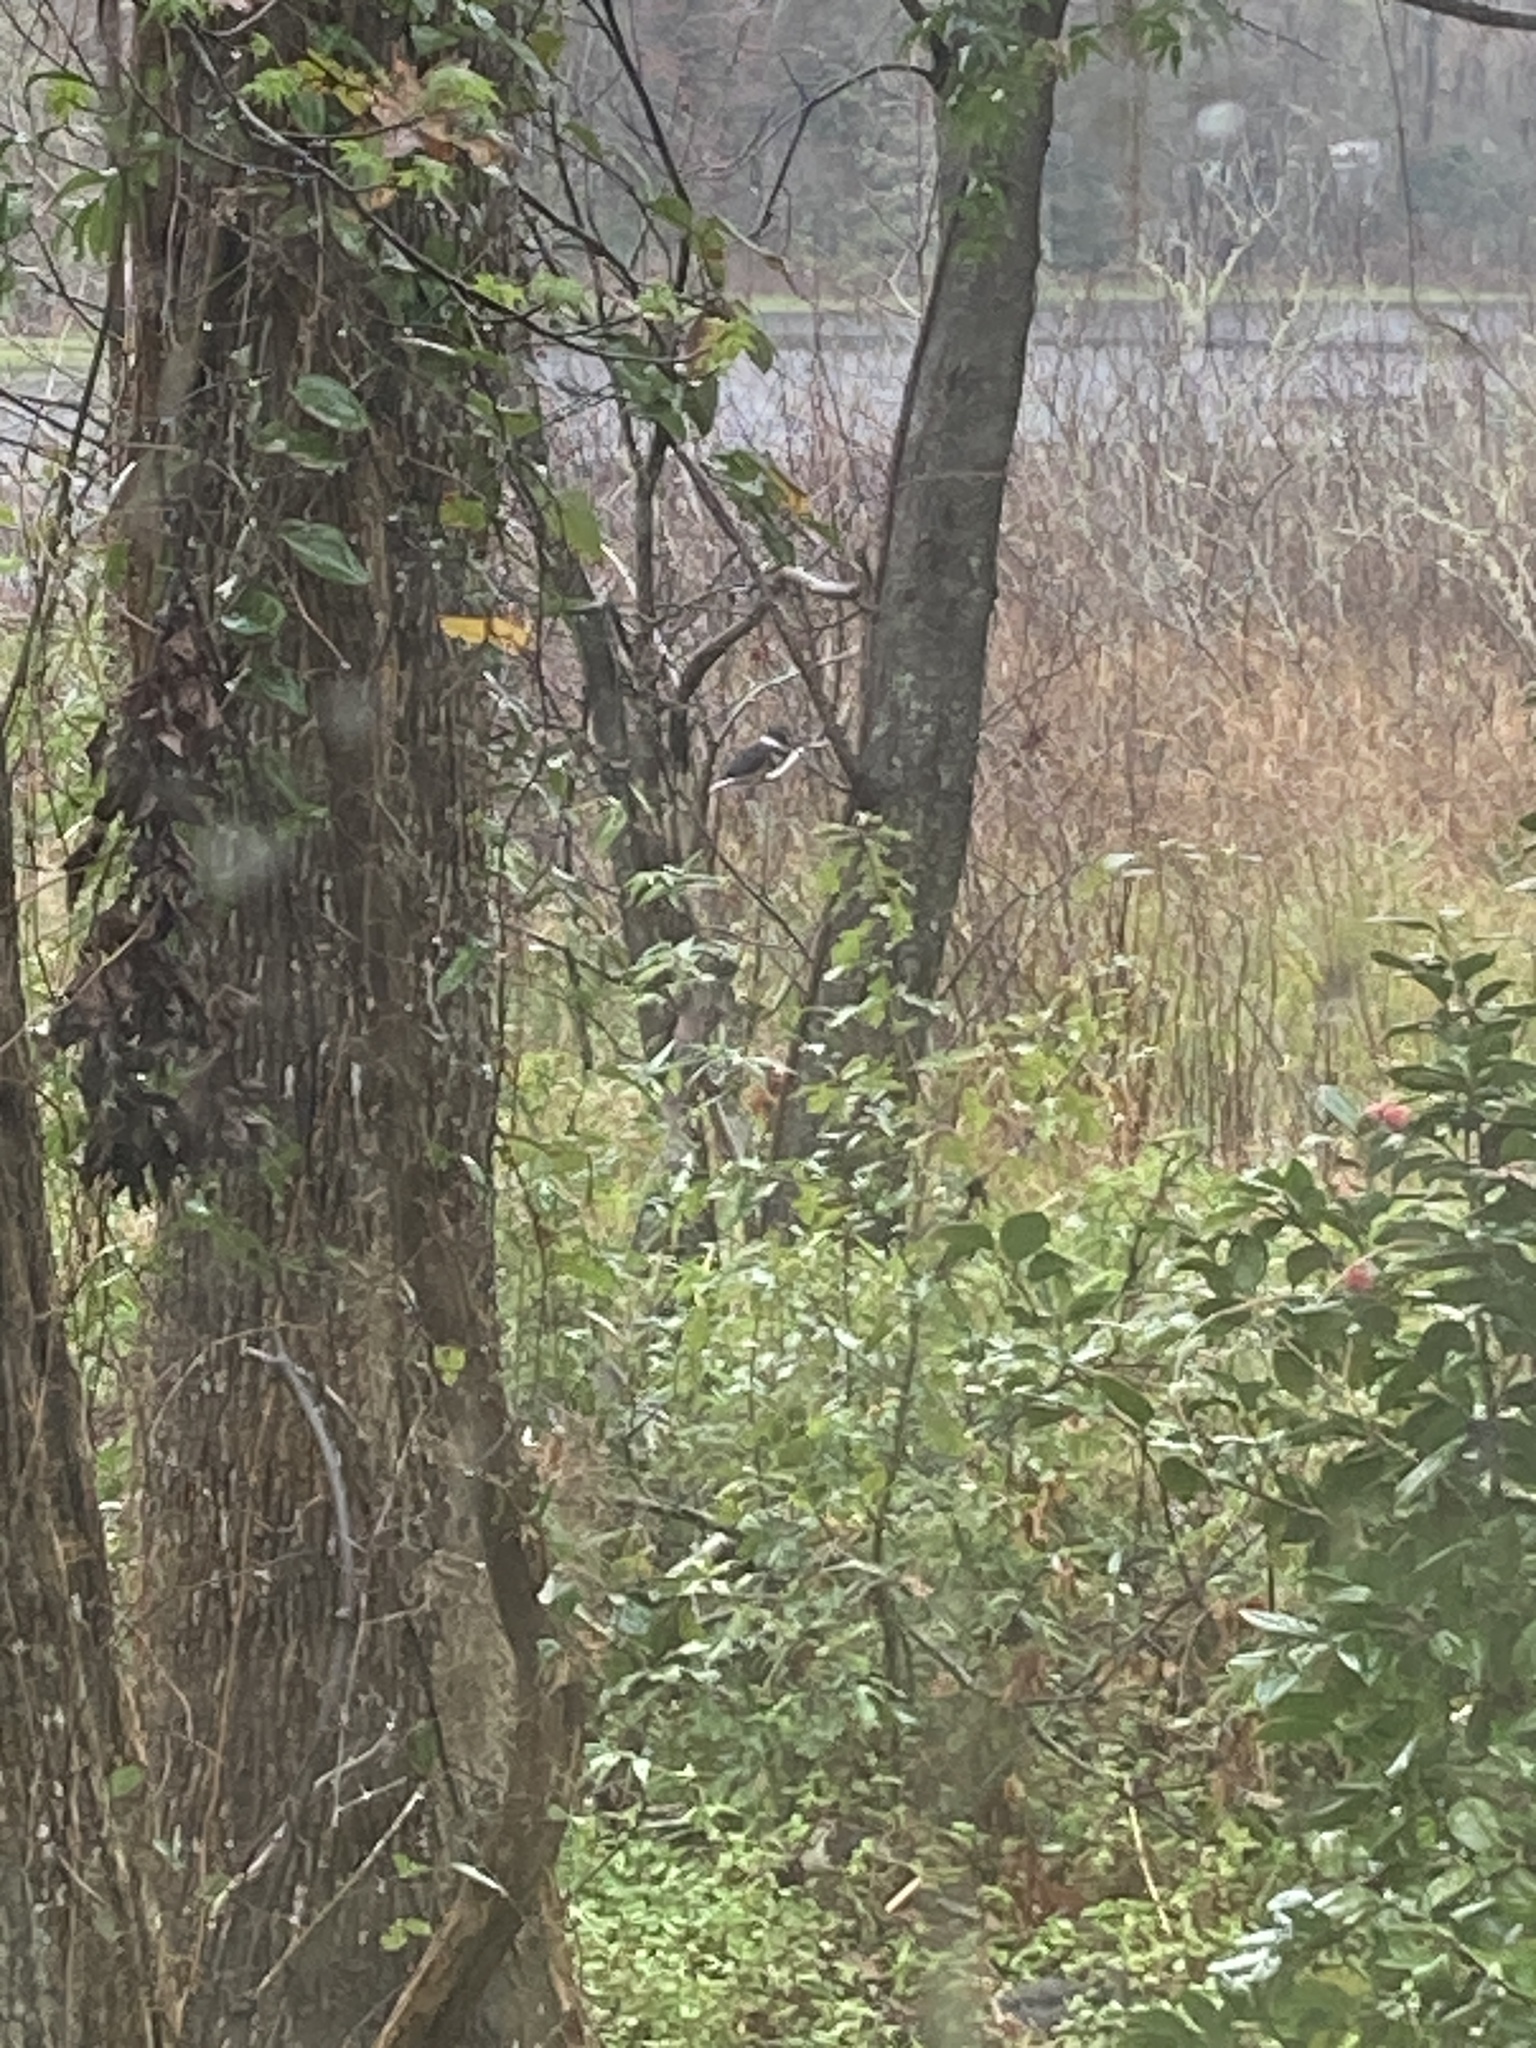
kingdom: Animalia
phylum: Chordata
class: Aves
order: Coraciiformes
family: Alcedinidae
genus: Megaceryle
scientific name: Megaceryle alcyon
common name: Belted kingfisher
